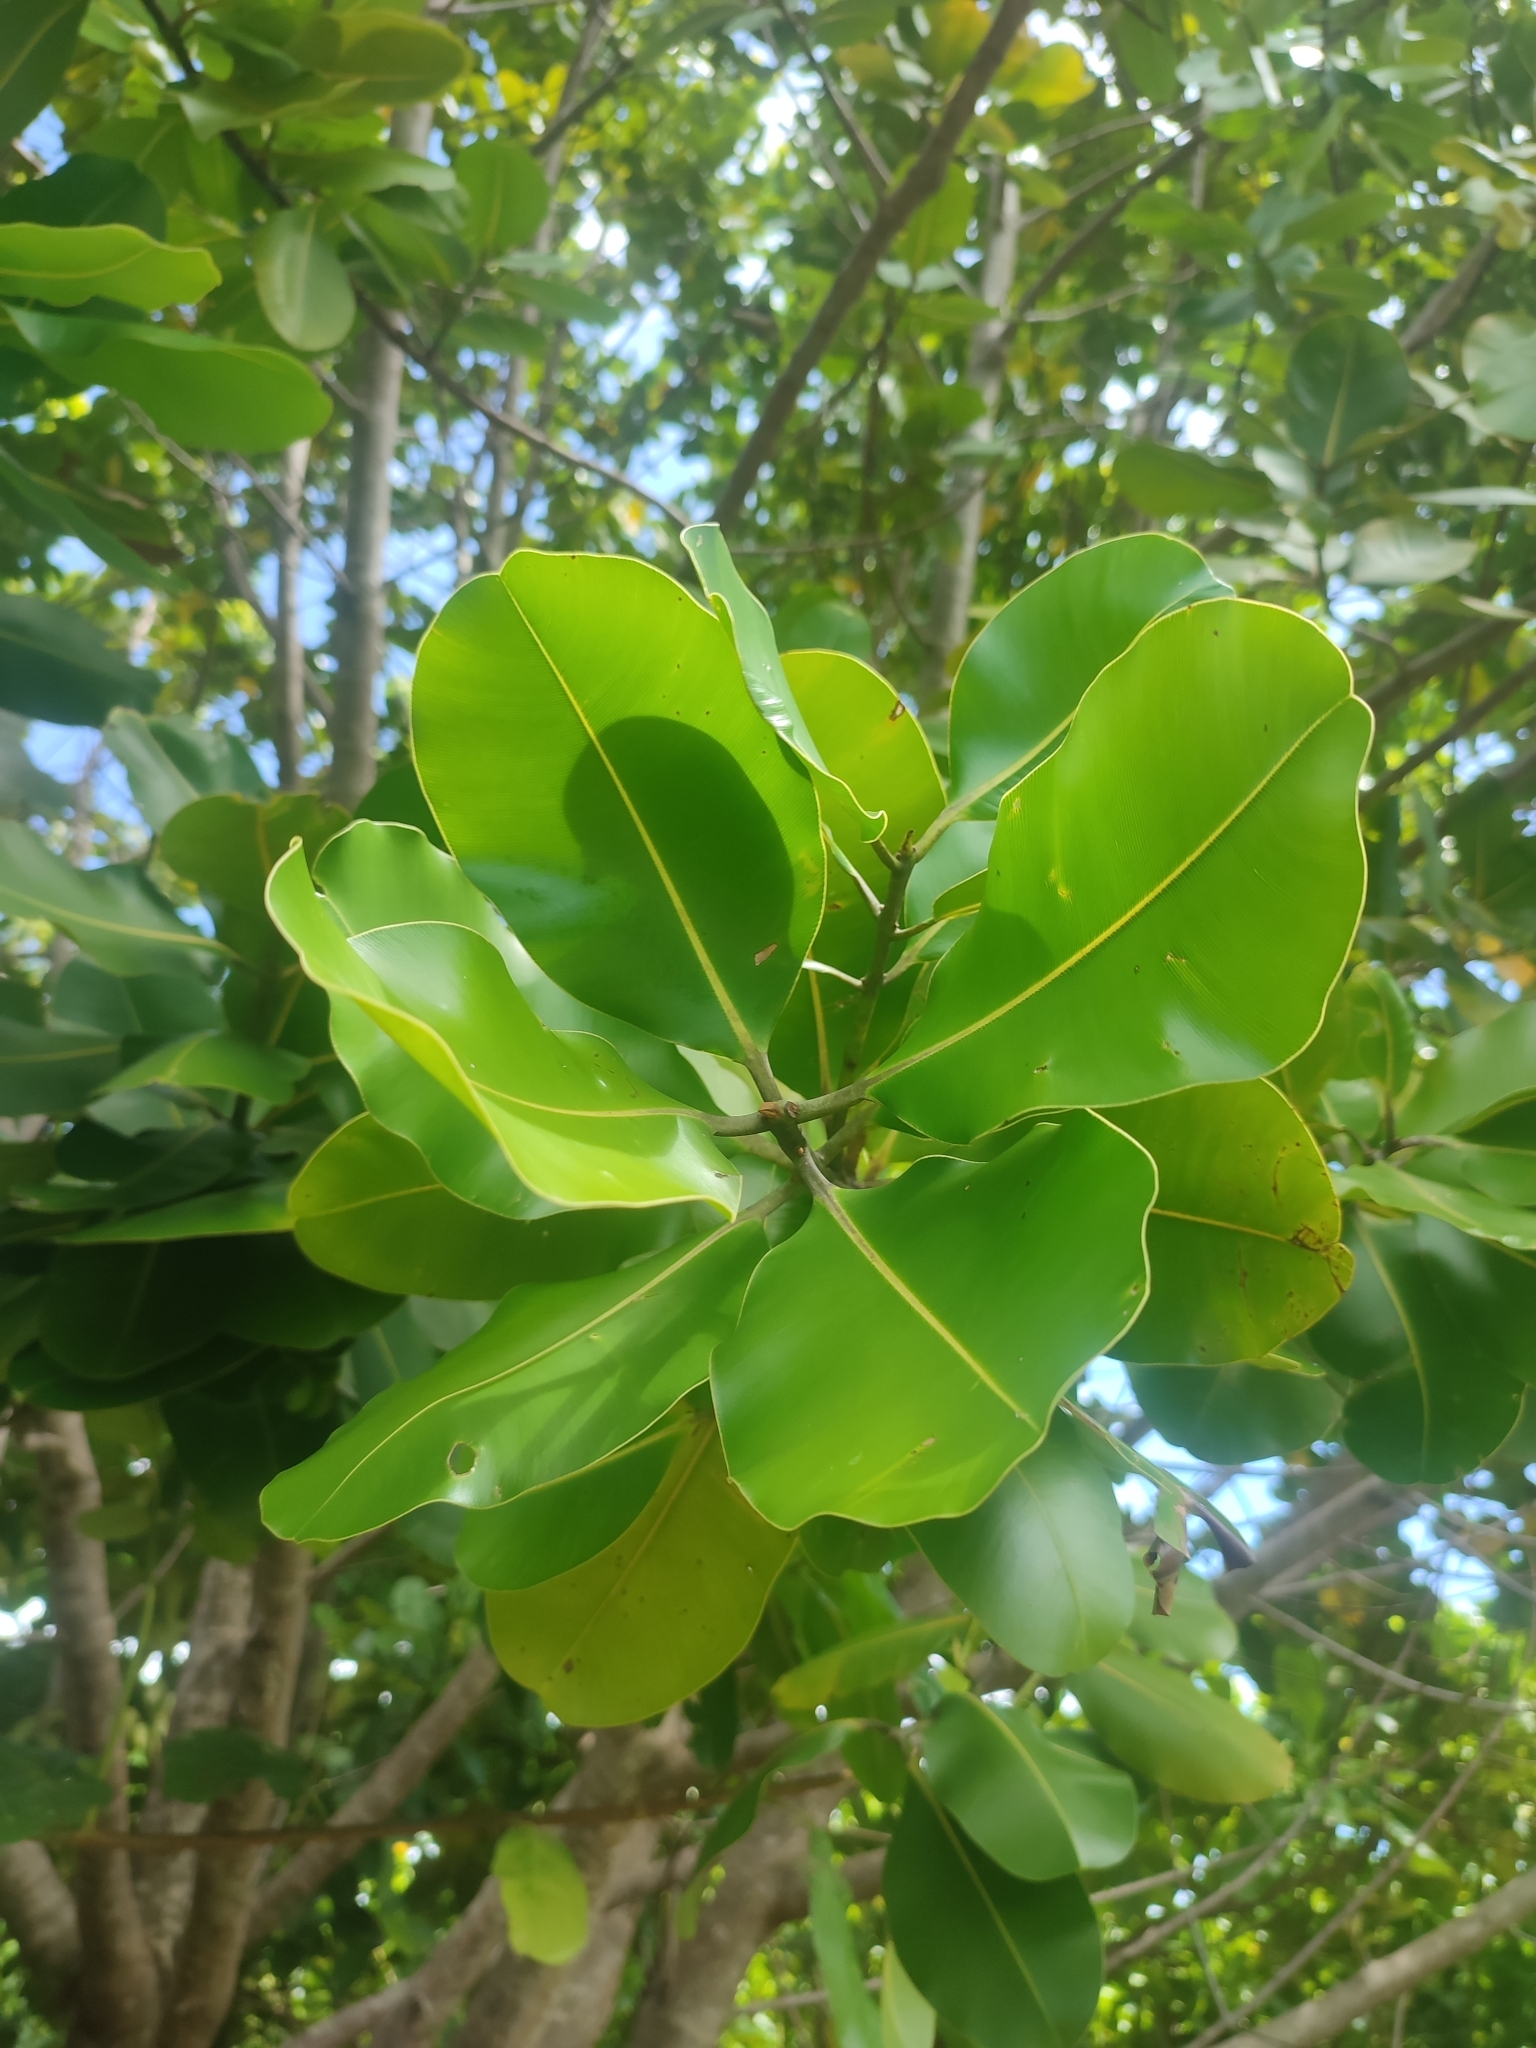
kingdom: Plantae
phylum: Tracheophyta
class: Magnoliopsida
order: Malpighiales
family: Calophyllaceae
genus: Calophyllum
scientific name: Calophyllum inophyllum
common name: Alexandrian laurel
